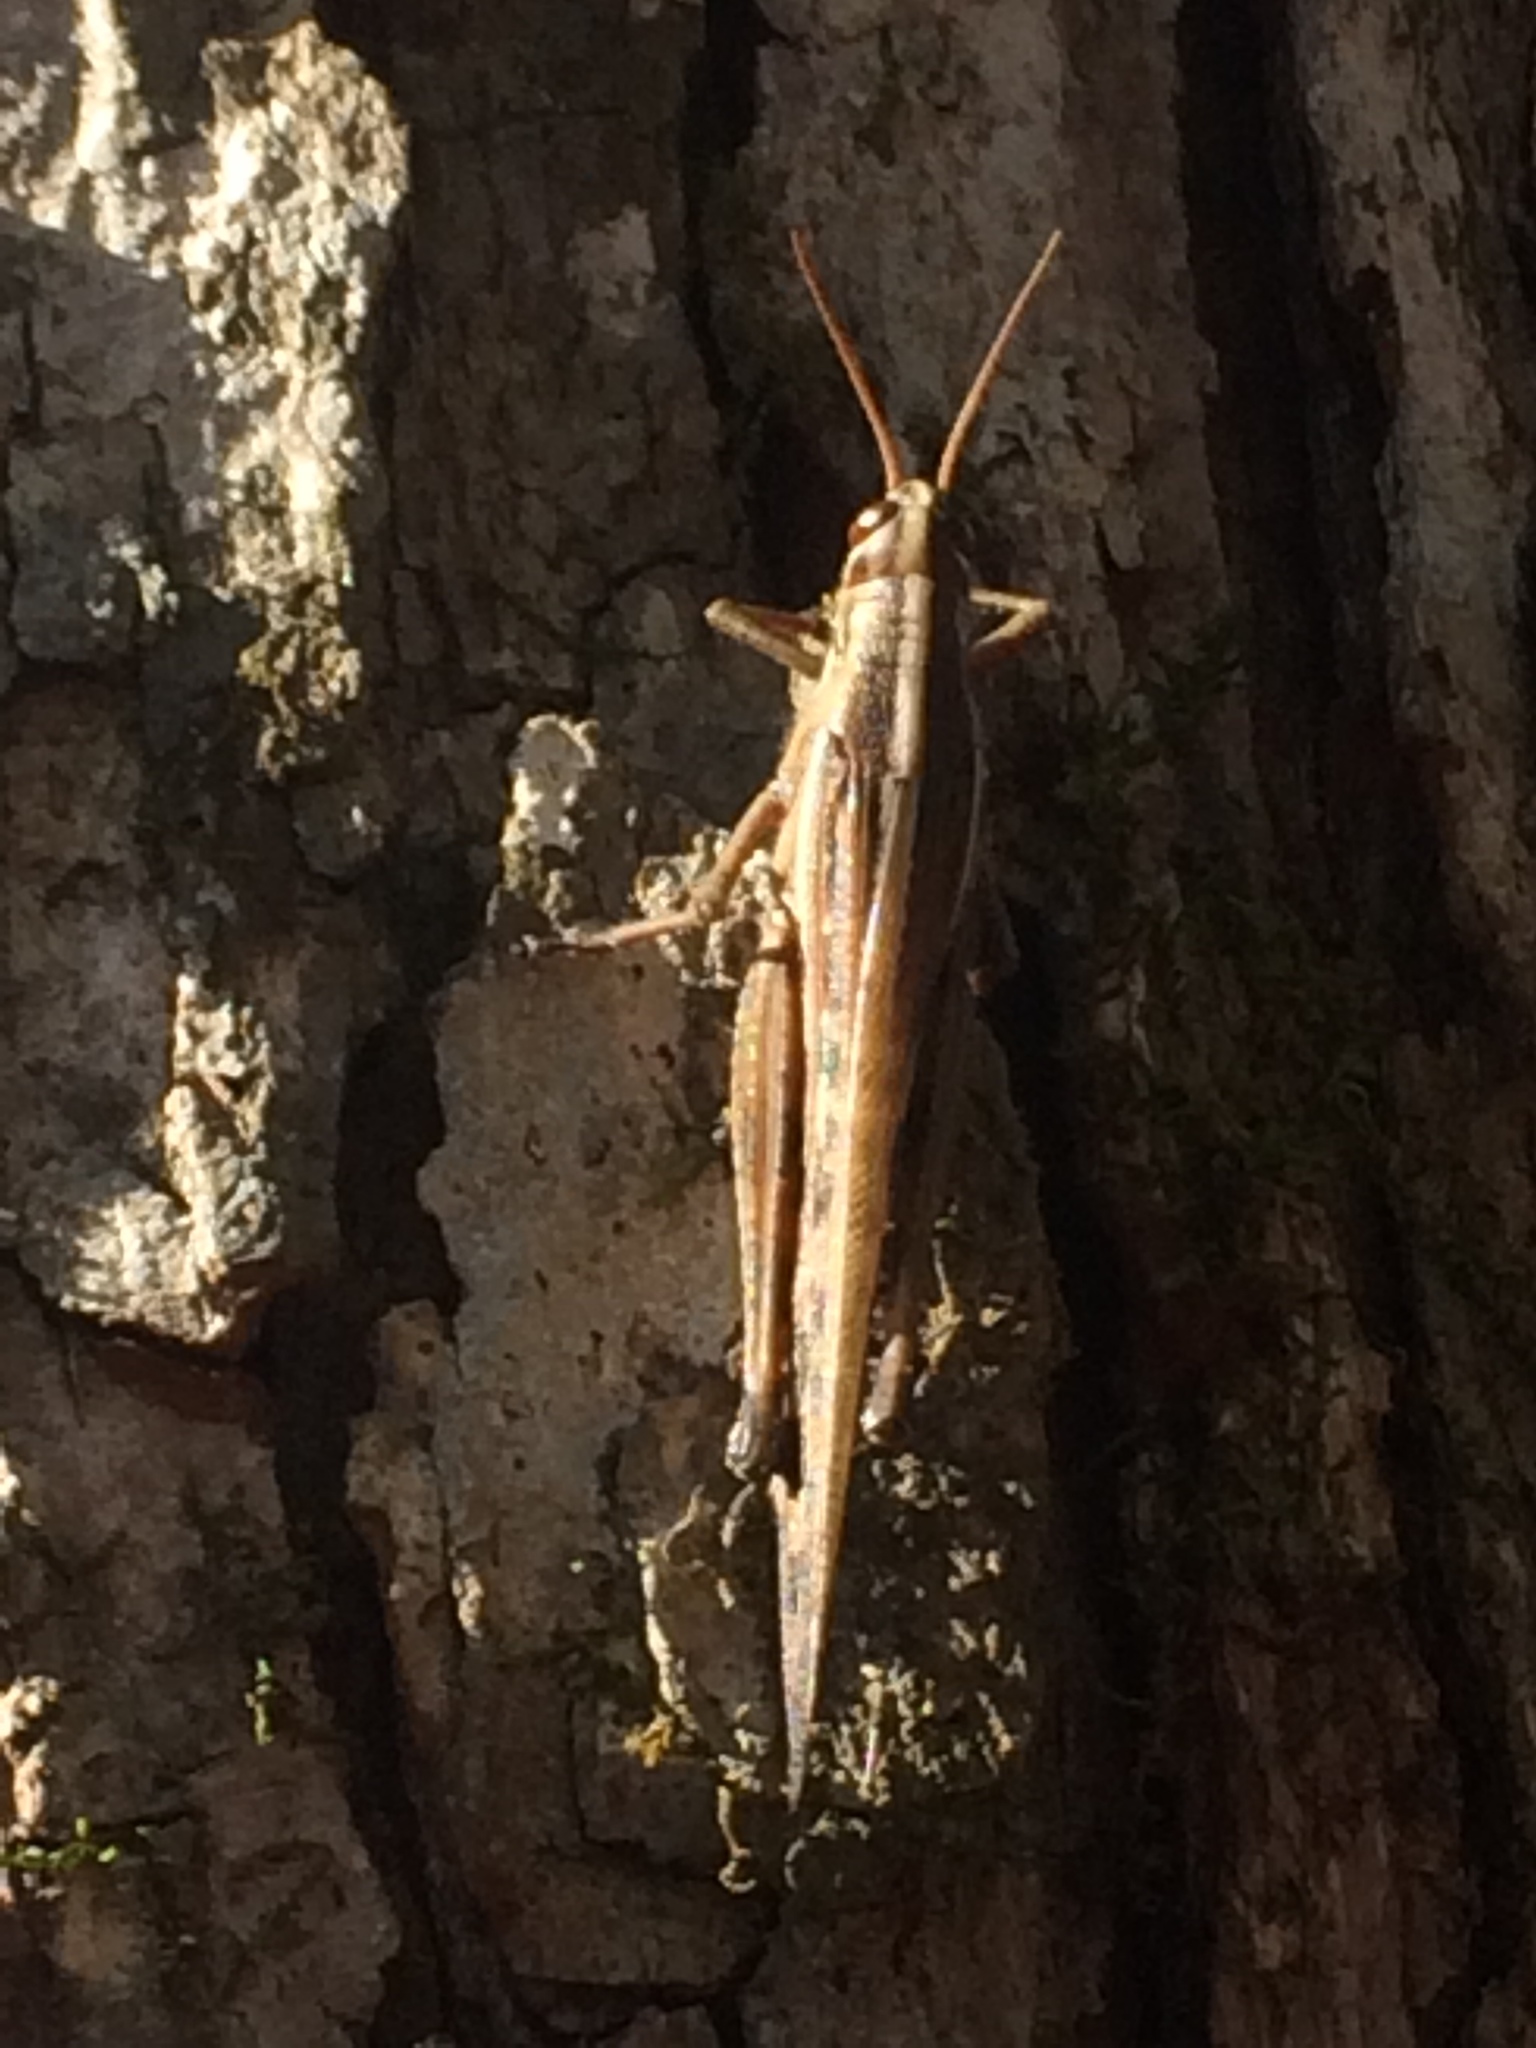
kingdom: Animalia
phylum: Arthropoda
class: Insecta
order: Orthoptera
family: Acrididae
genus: Schistocerca
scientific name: Schistocerca americana
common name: American bird locust
